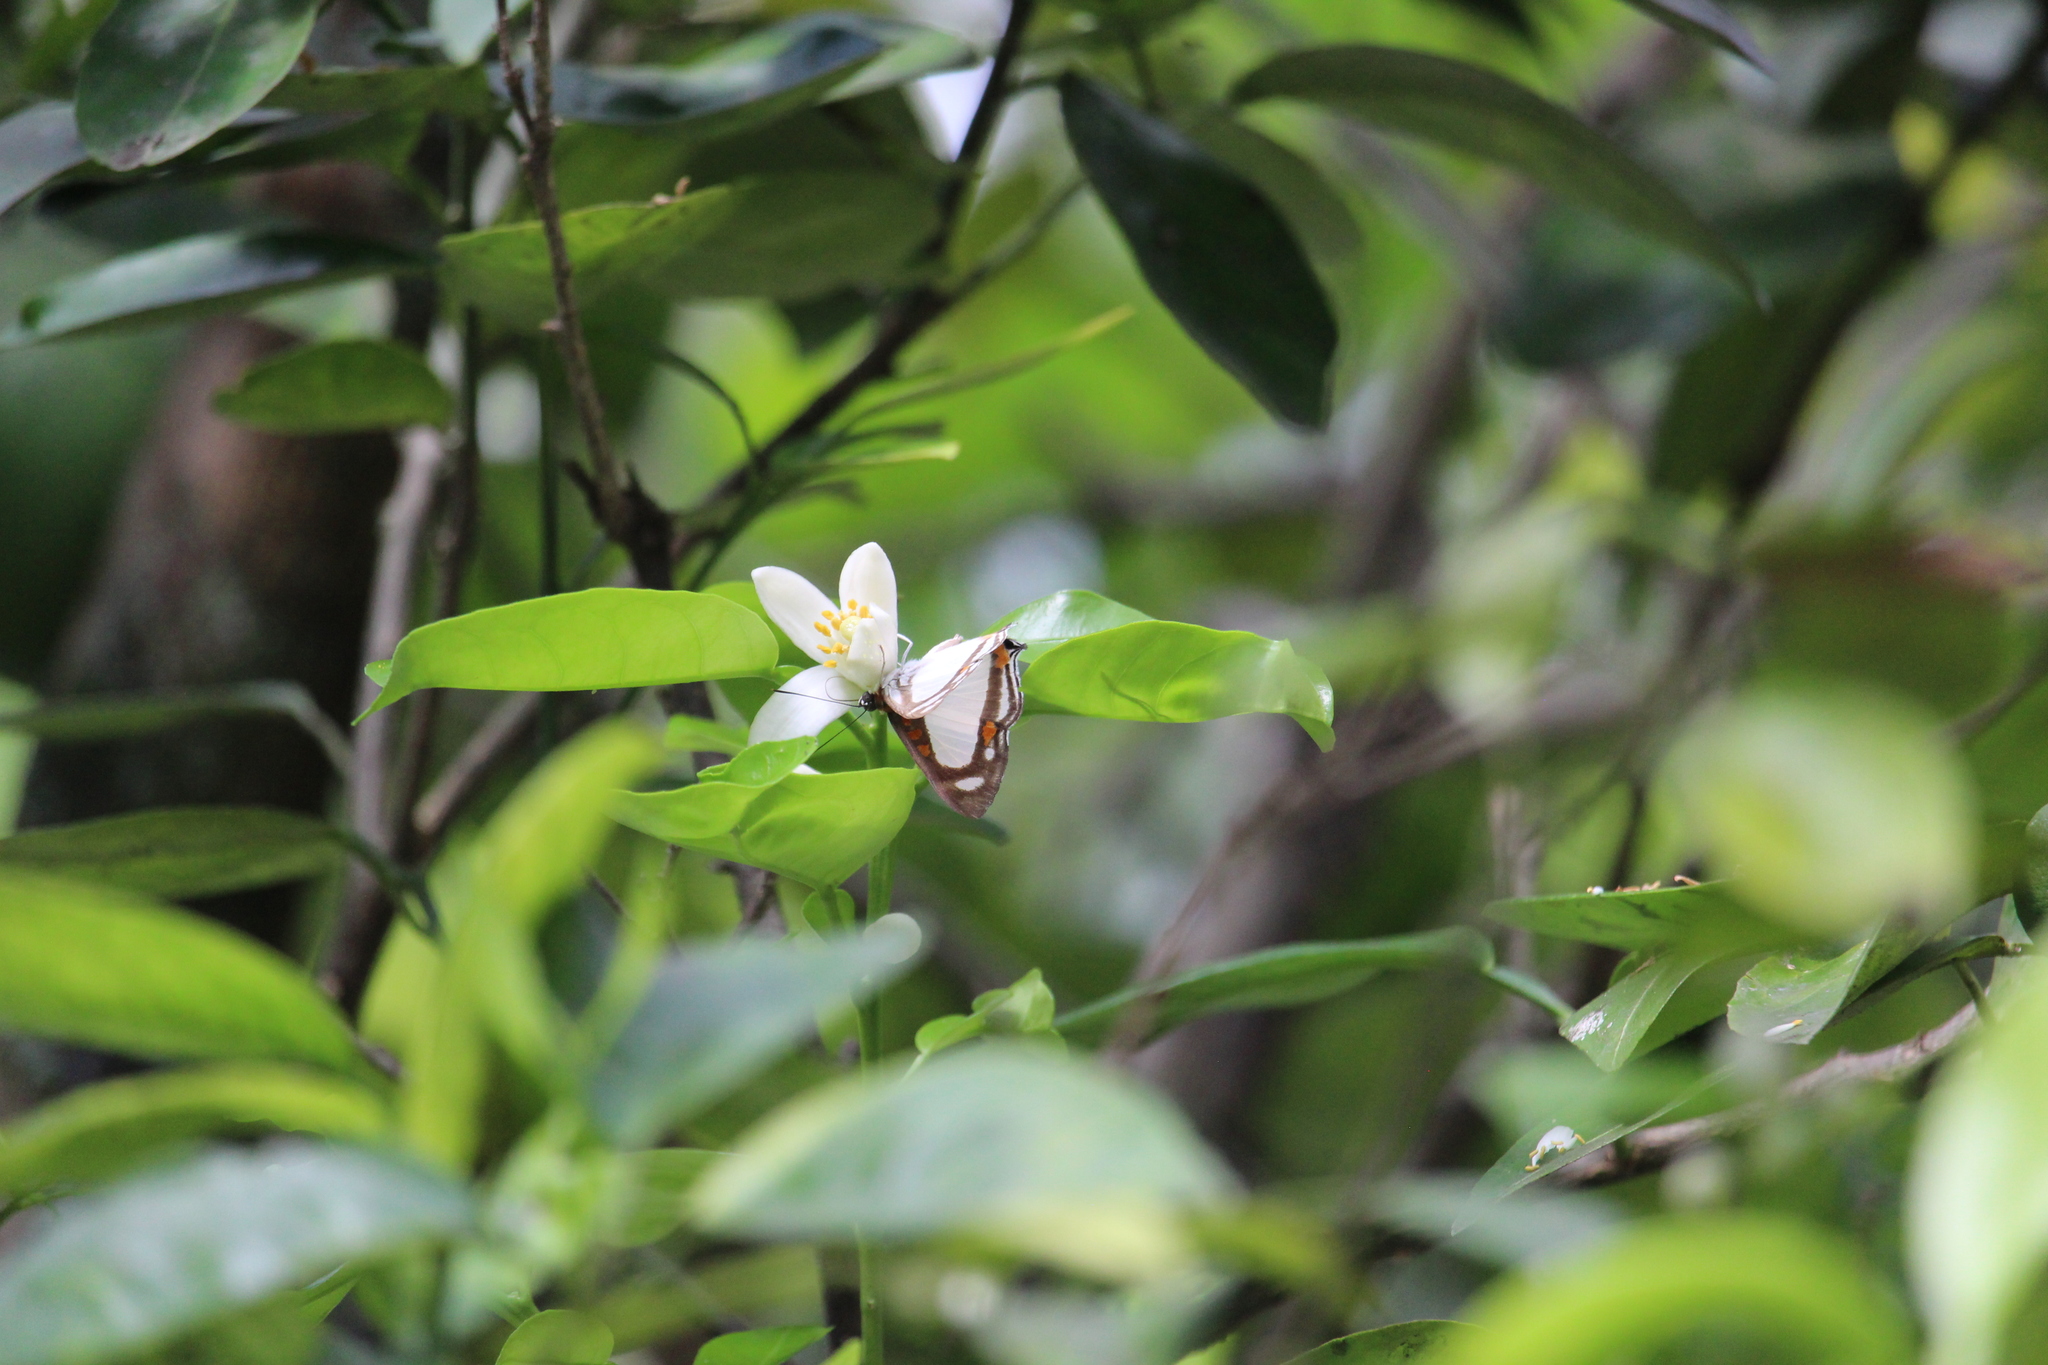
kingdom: Animalia
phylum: Arthropoda
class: Insecta
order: Lepidoptera
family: Riodinidae
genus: Thisbe
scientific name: Thisbe lycorias
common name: Banner metalmark
